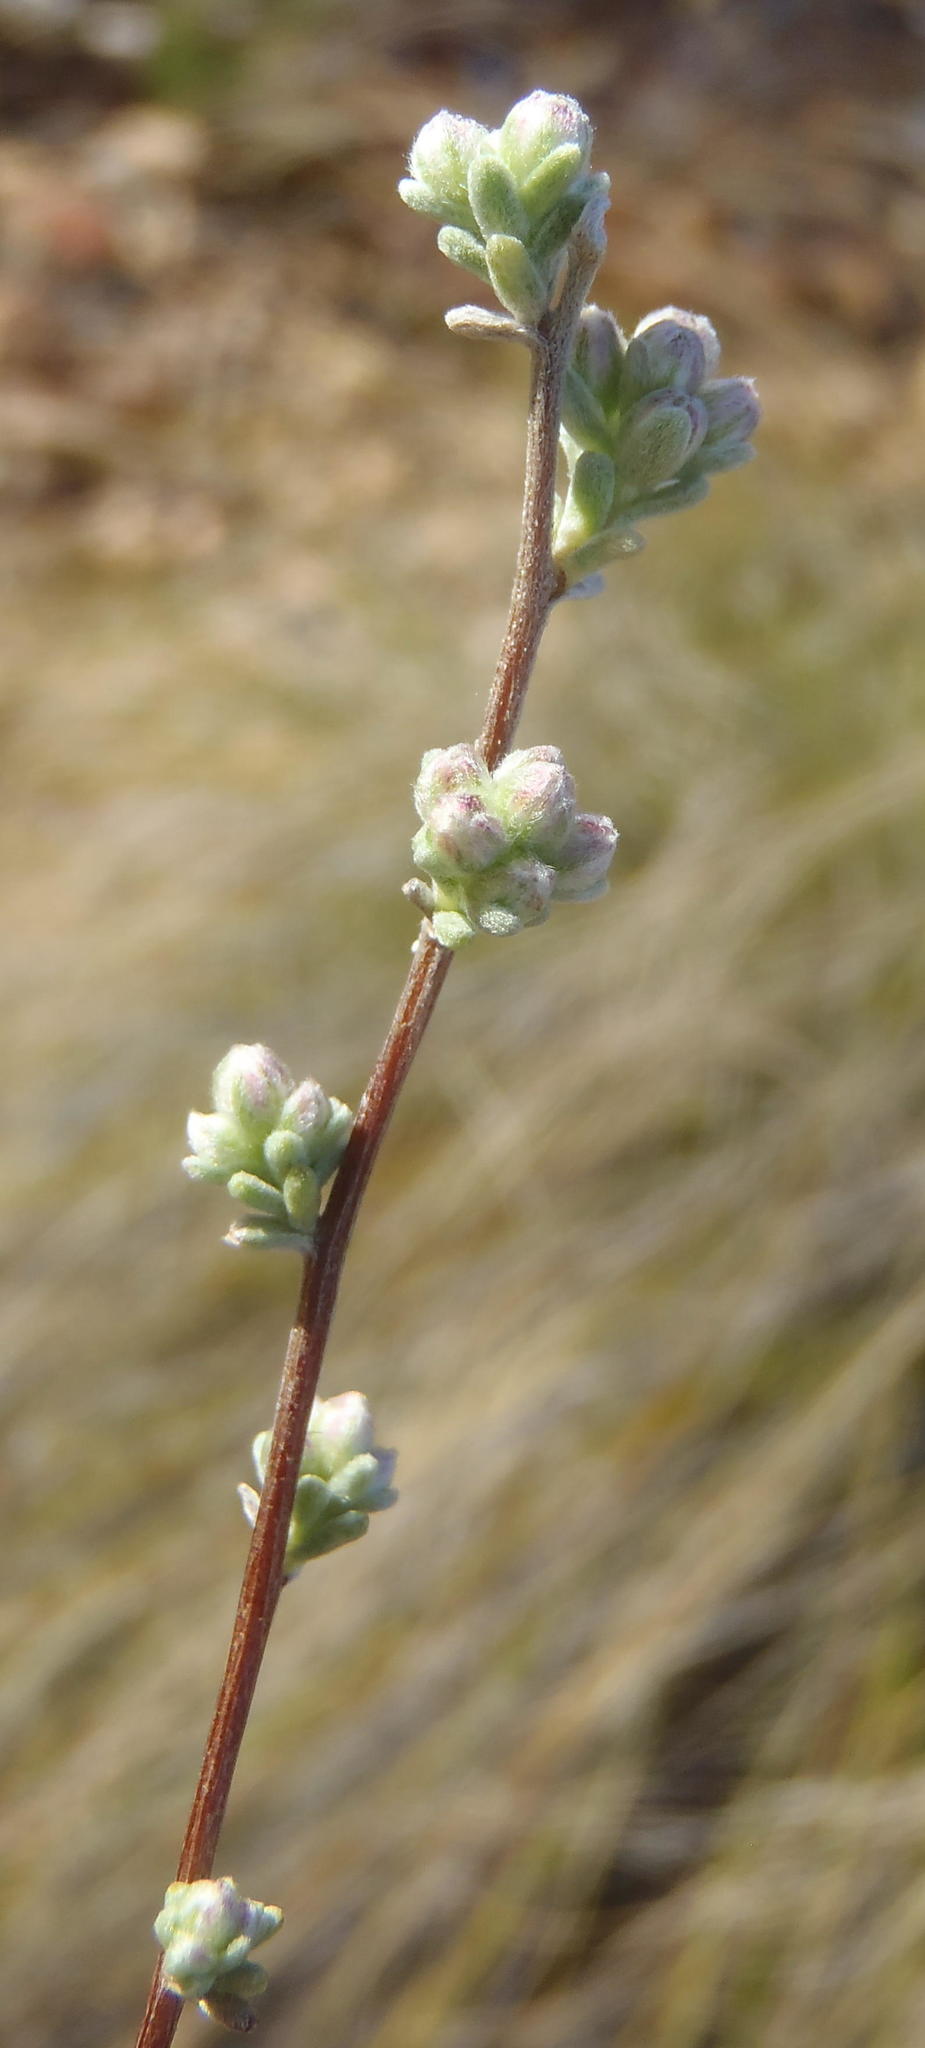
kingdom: Plantae
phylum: Tracheophyta
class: Magnoliopsida
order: Asterales
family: Asteraceae
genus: Eriocephalus
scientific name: Eriocephalus tenuipes
